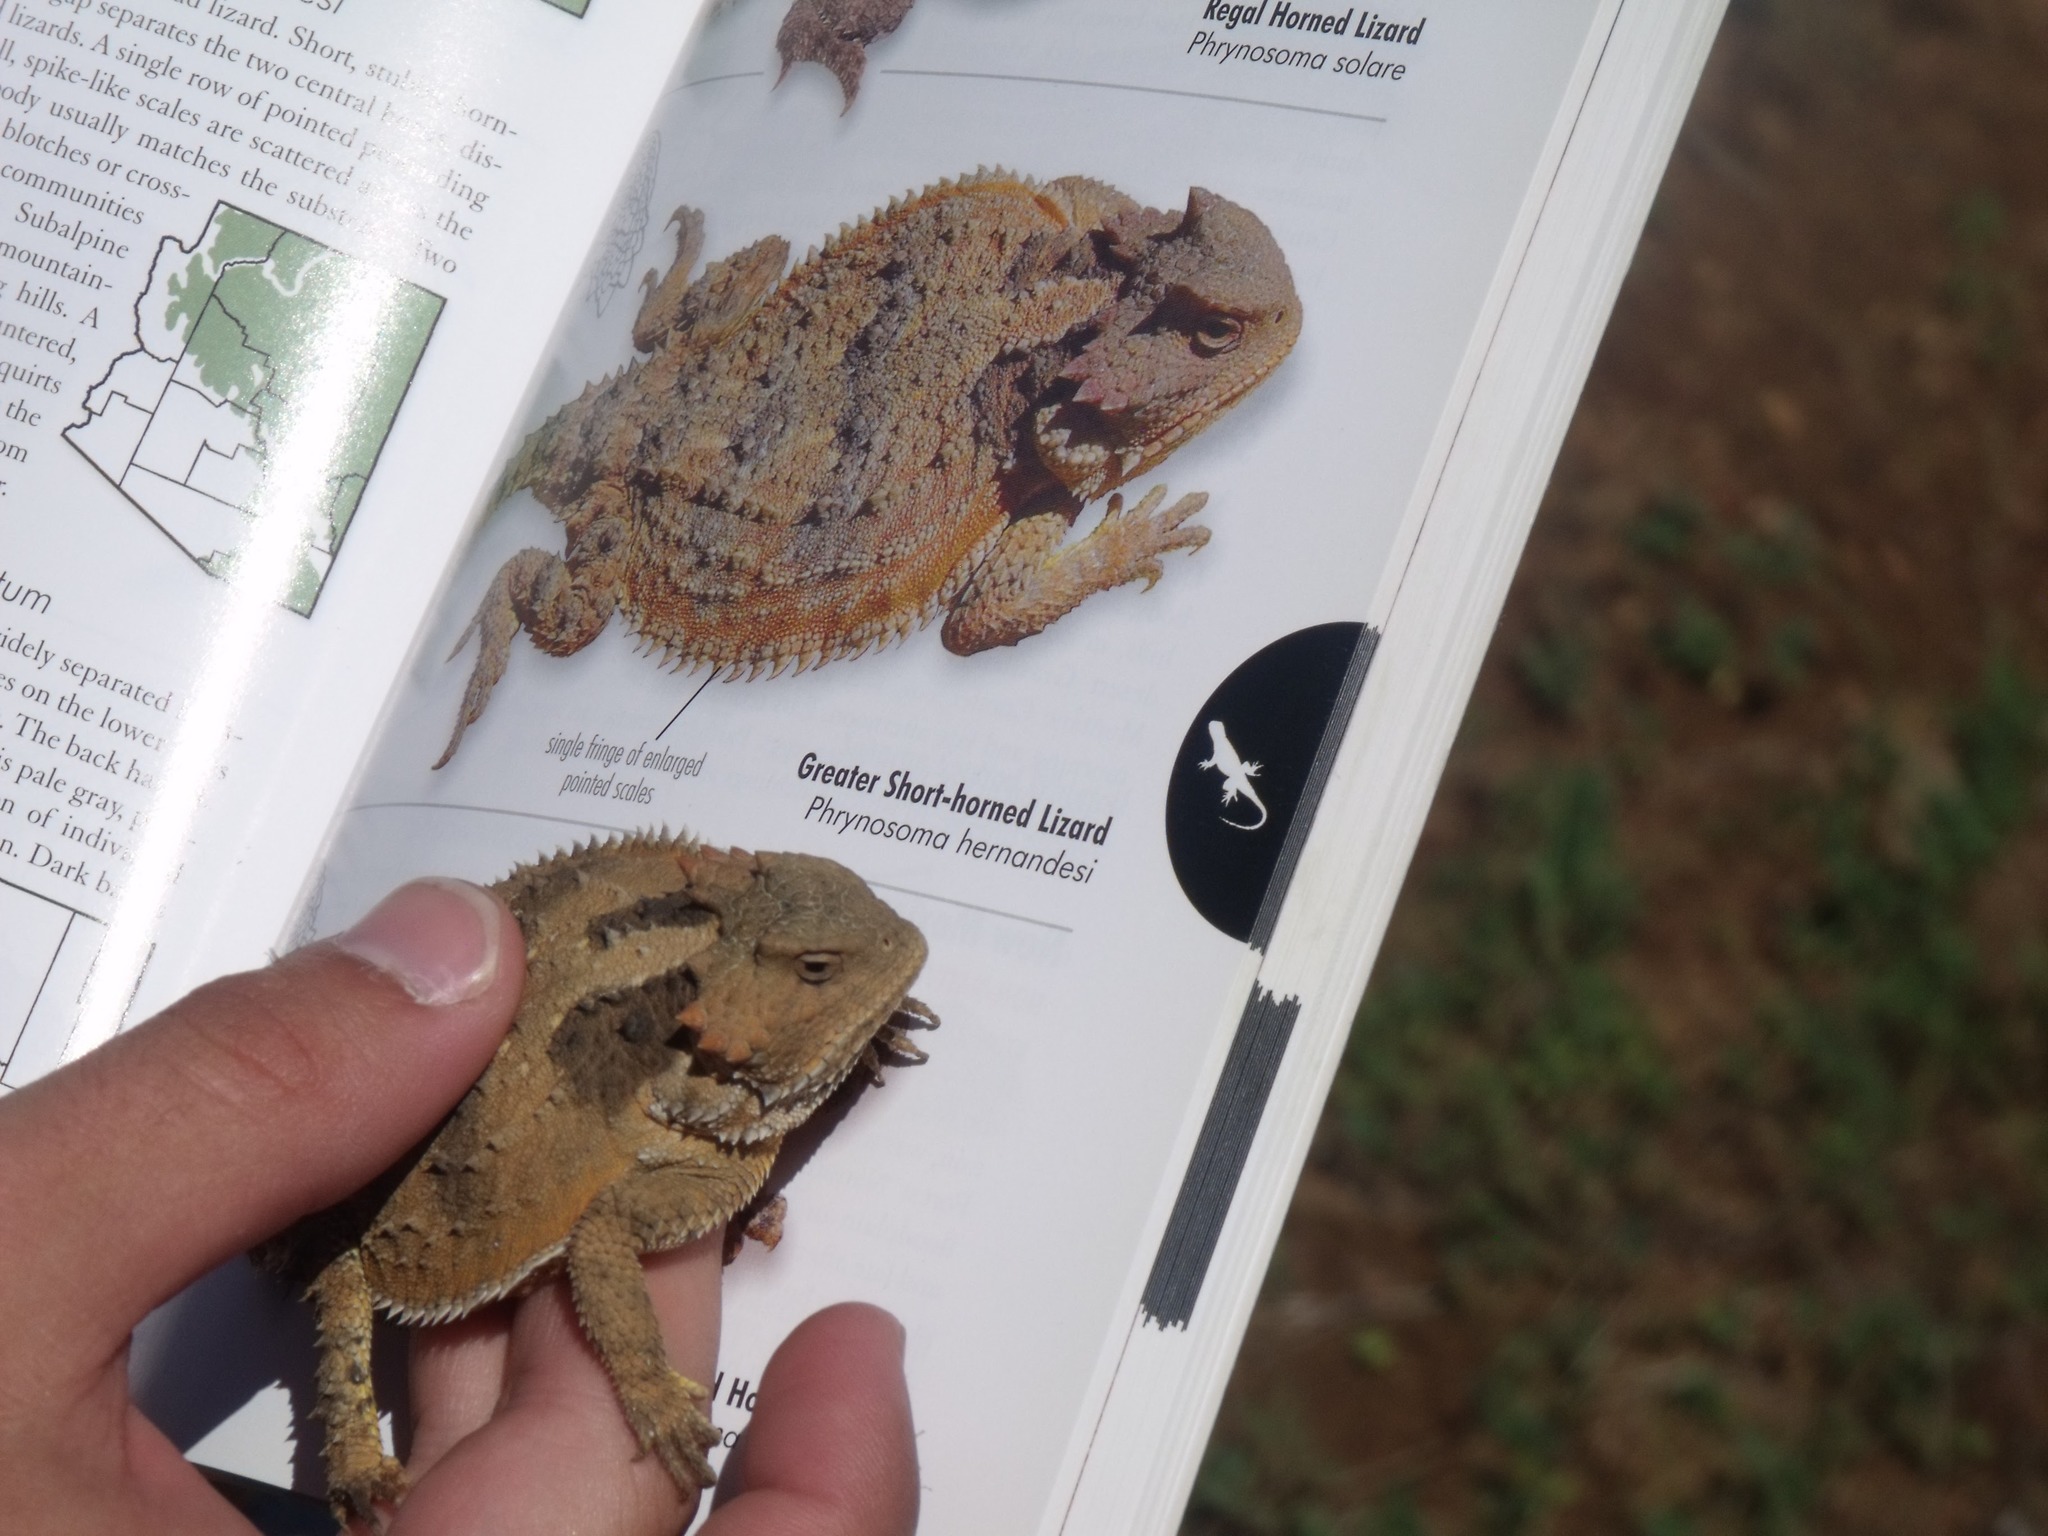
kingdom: Animalia
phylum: Chordata
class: Squamata
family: Phrynosomatidae
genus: Phrynosoma
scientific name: Phrynosoma hernandesi
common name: Greater short-horned lizard
